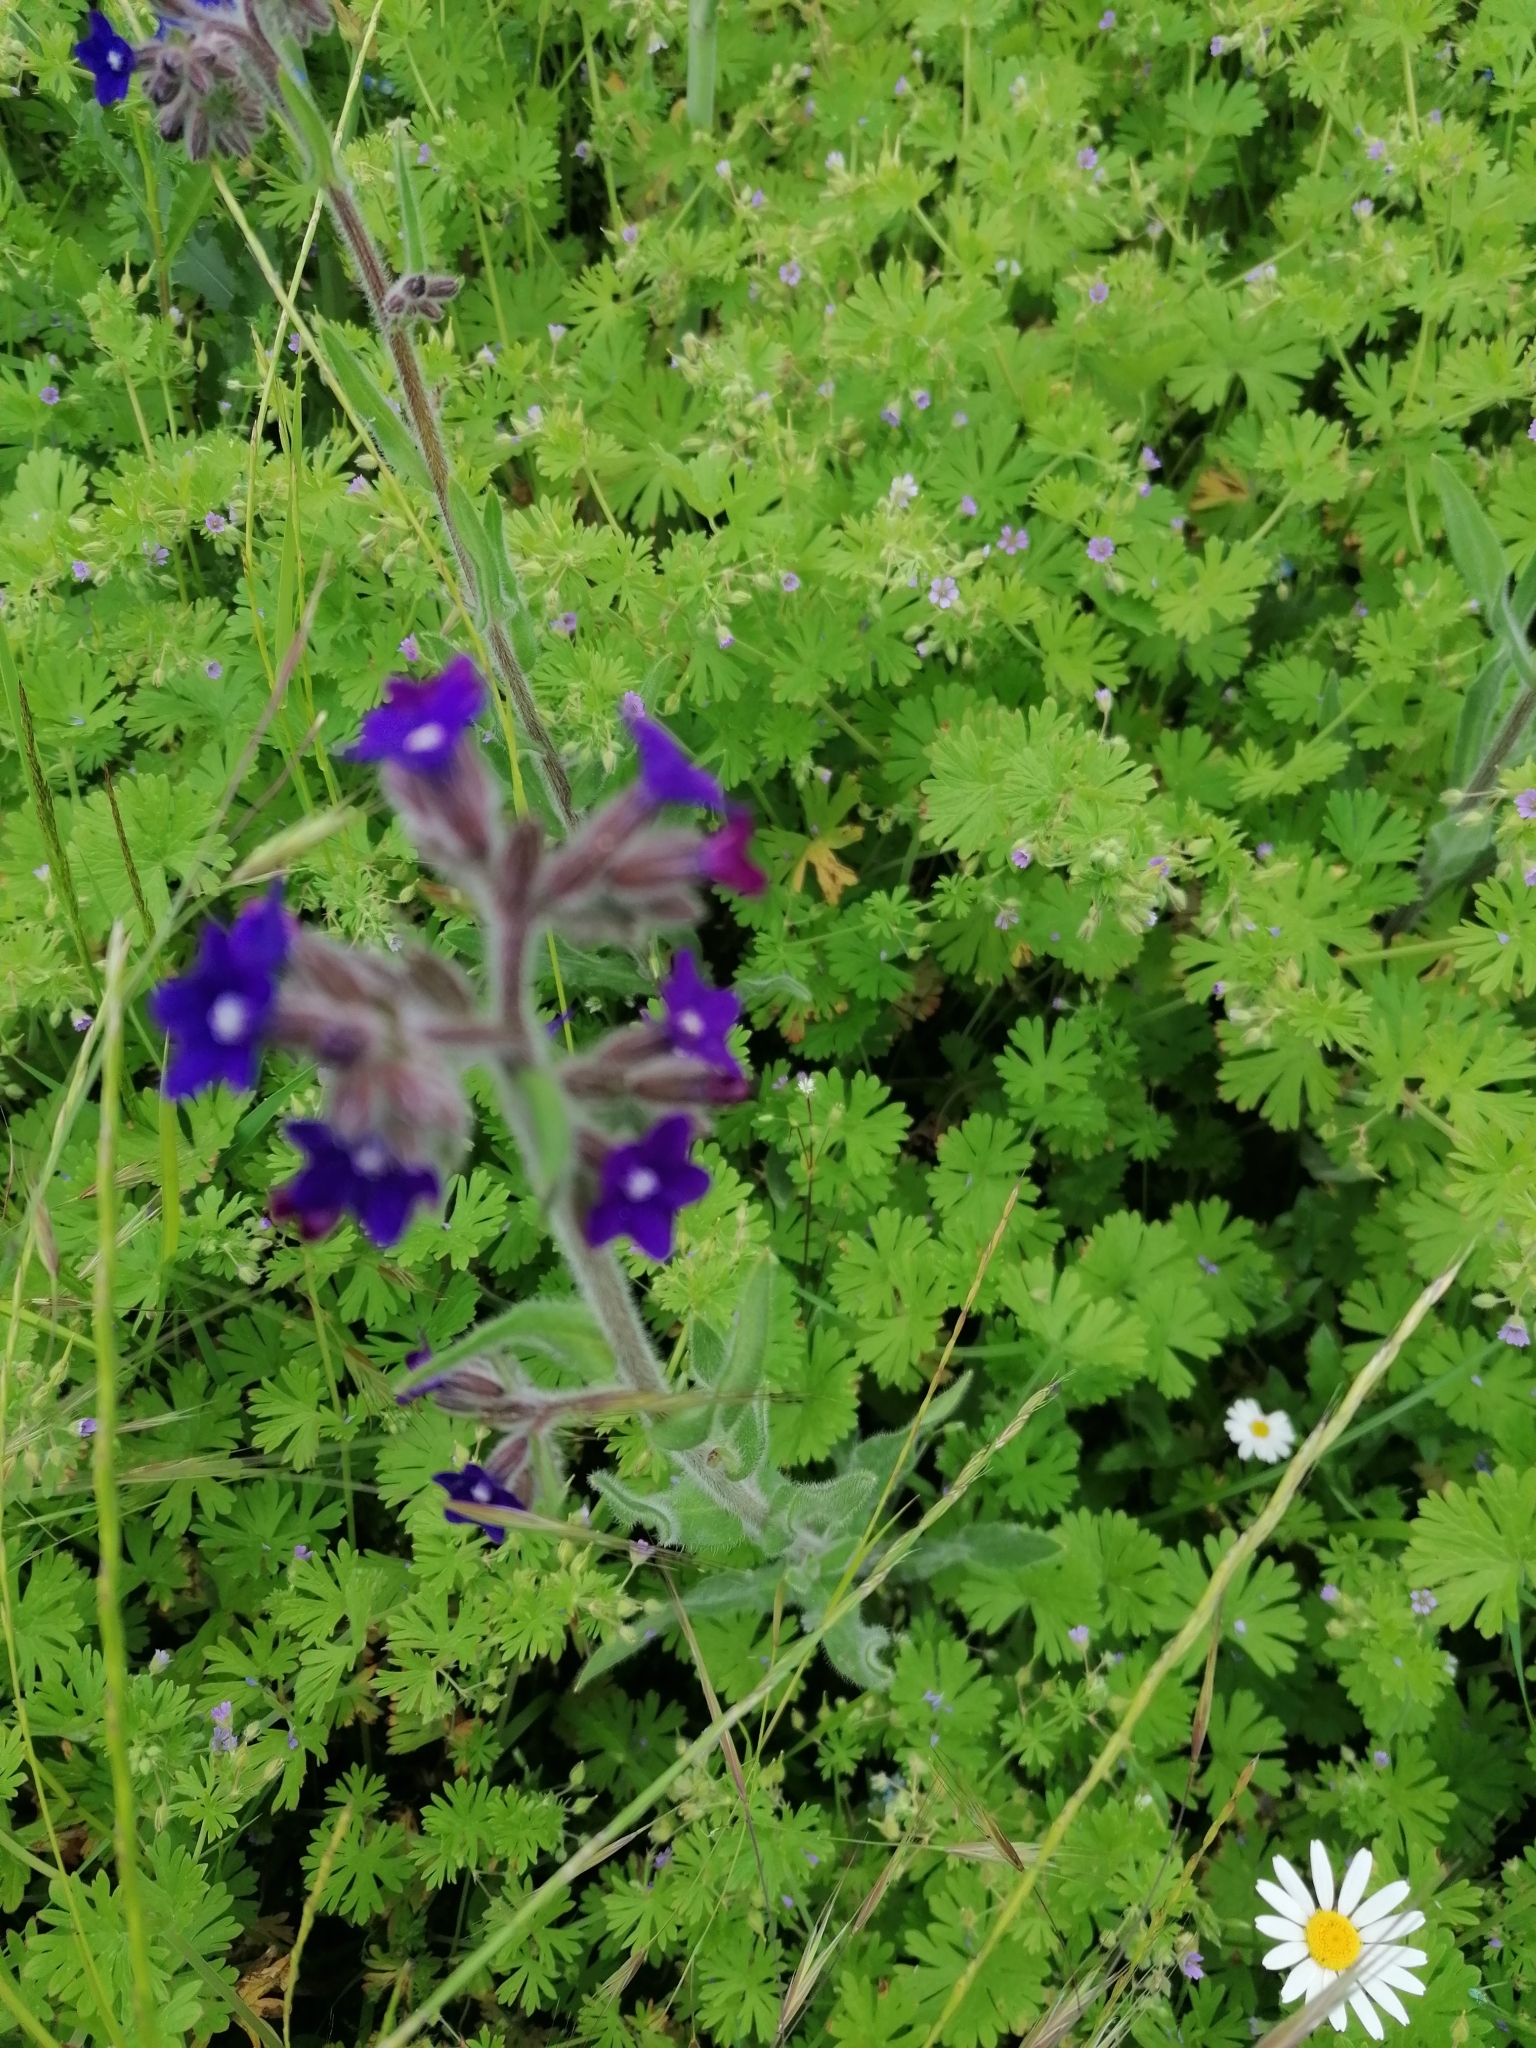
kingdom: Plantae
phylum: Tracheophyta
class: Magnoliopsida
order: Boraginales
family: Boraginaceae
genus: Anchusa
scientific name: Anchusa officinalis
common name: Alkanet
